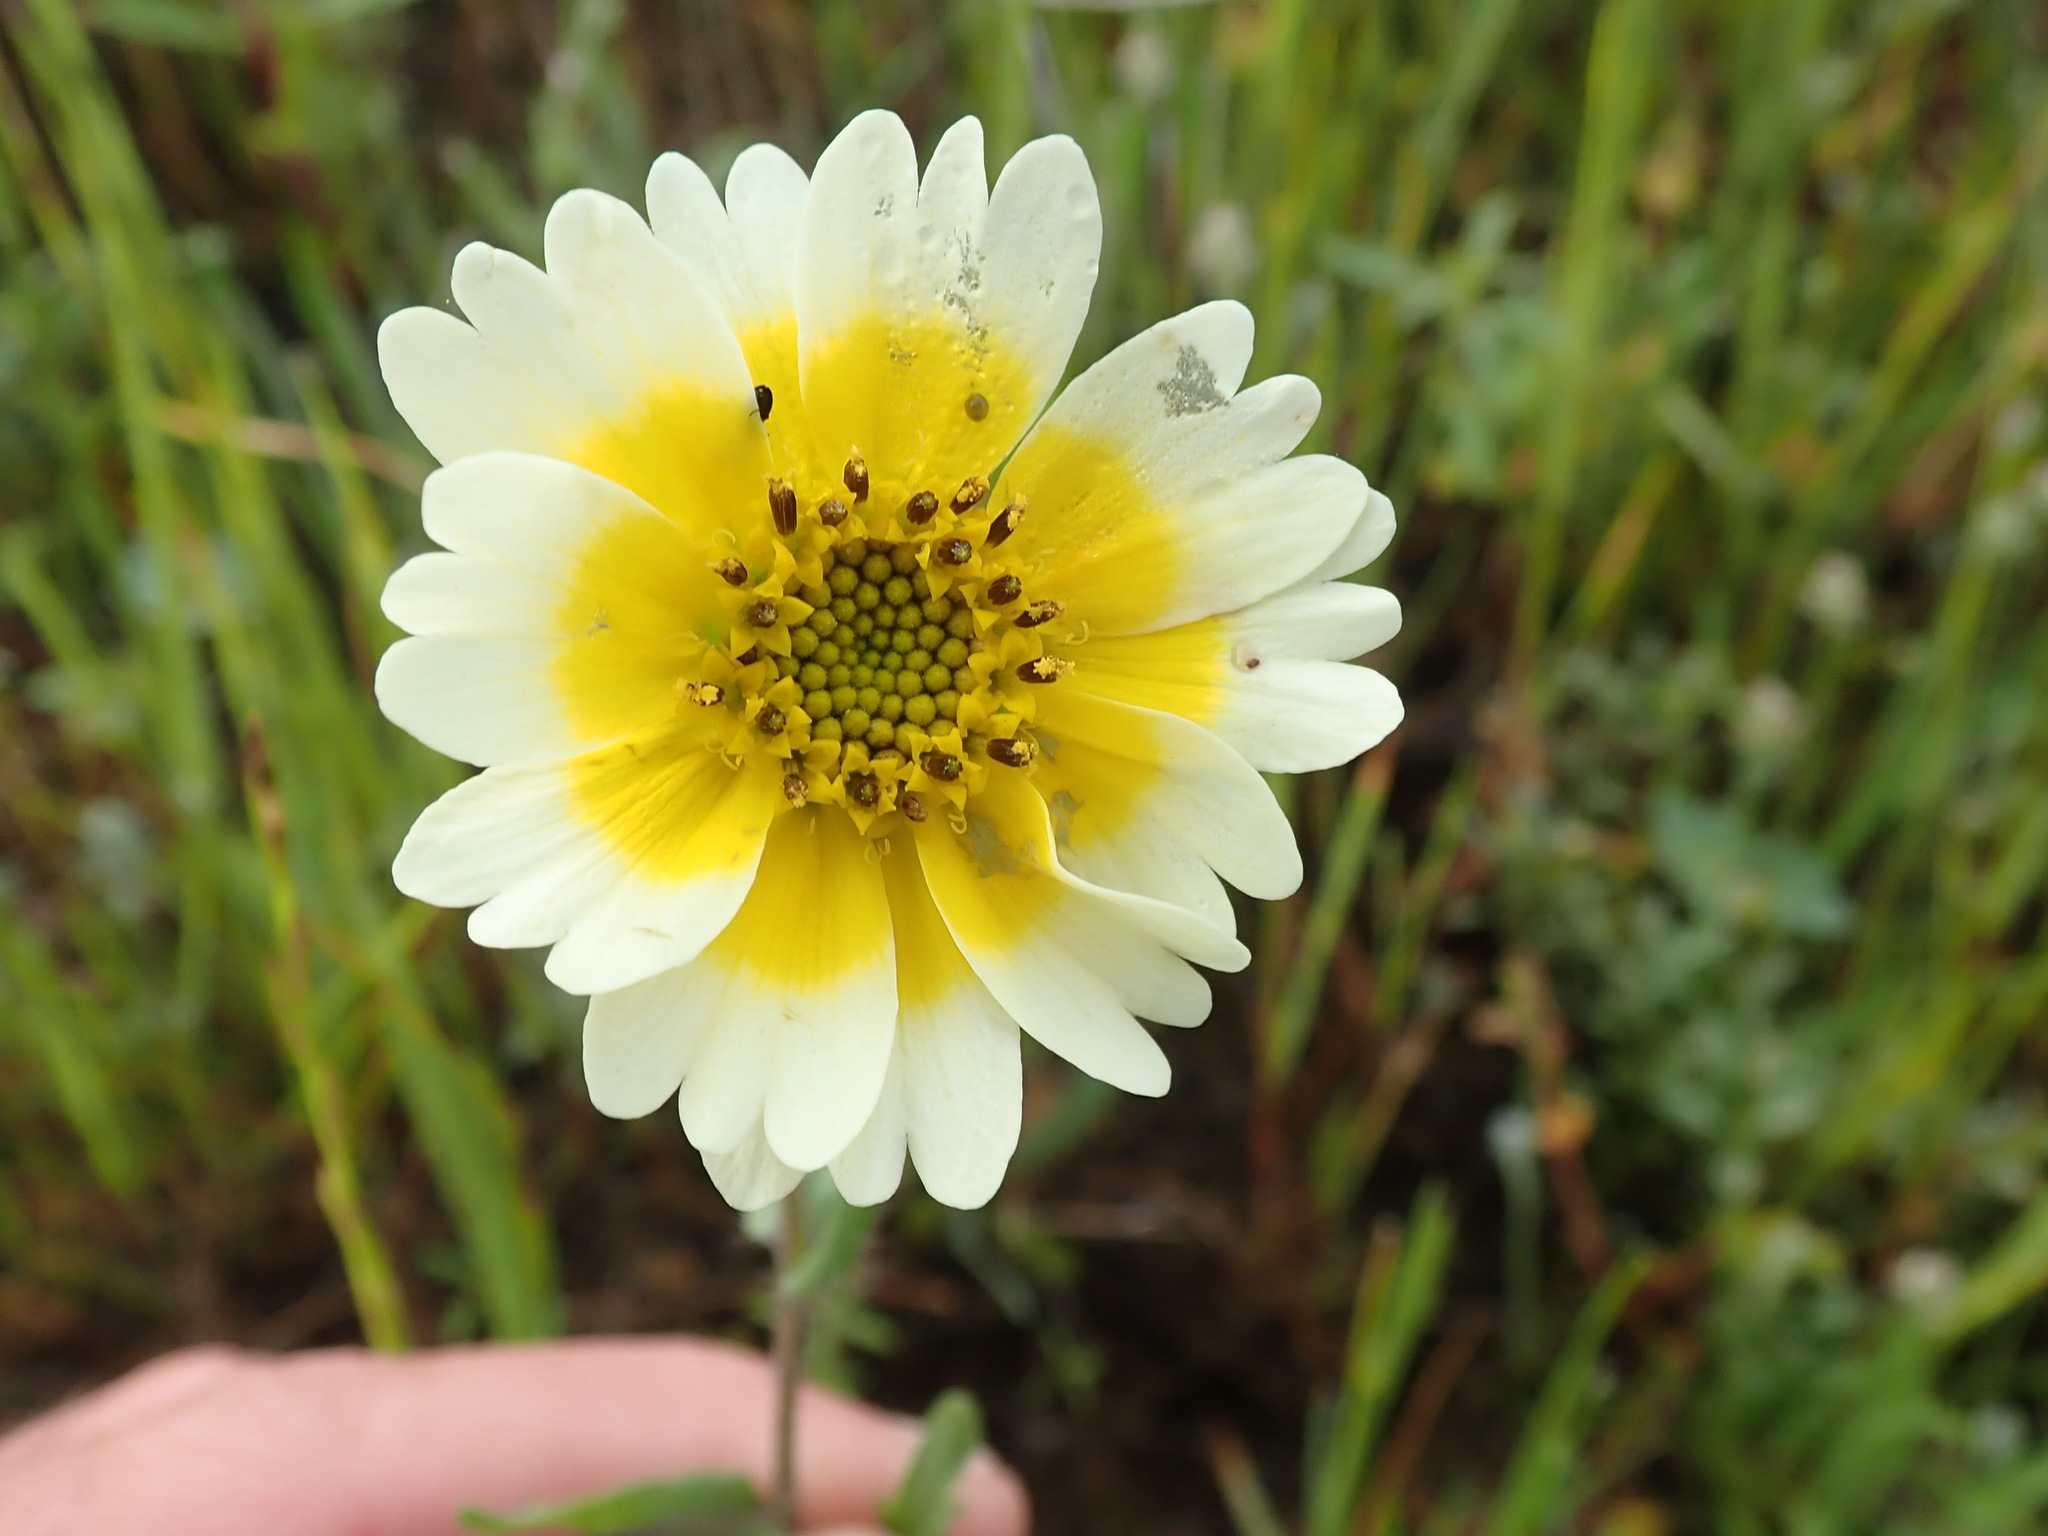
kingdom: Plantae
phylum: Tracheophyta
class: Magnoliopsida
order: Asterales
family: Asteraceae
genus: Layia
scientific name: Layia gaillardioides
